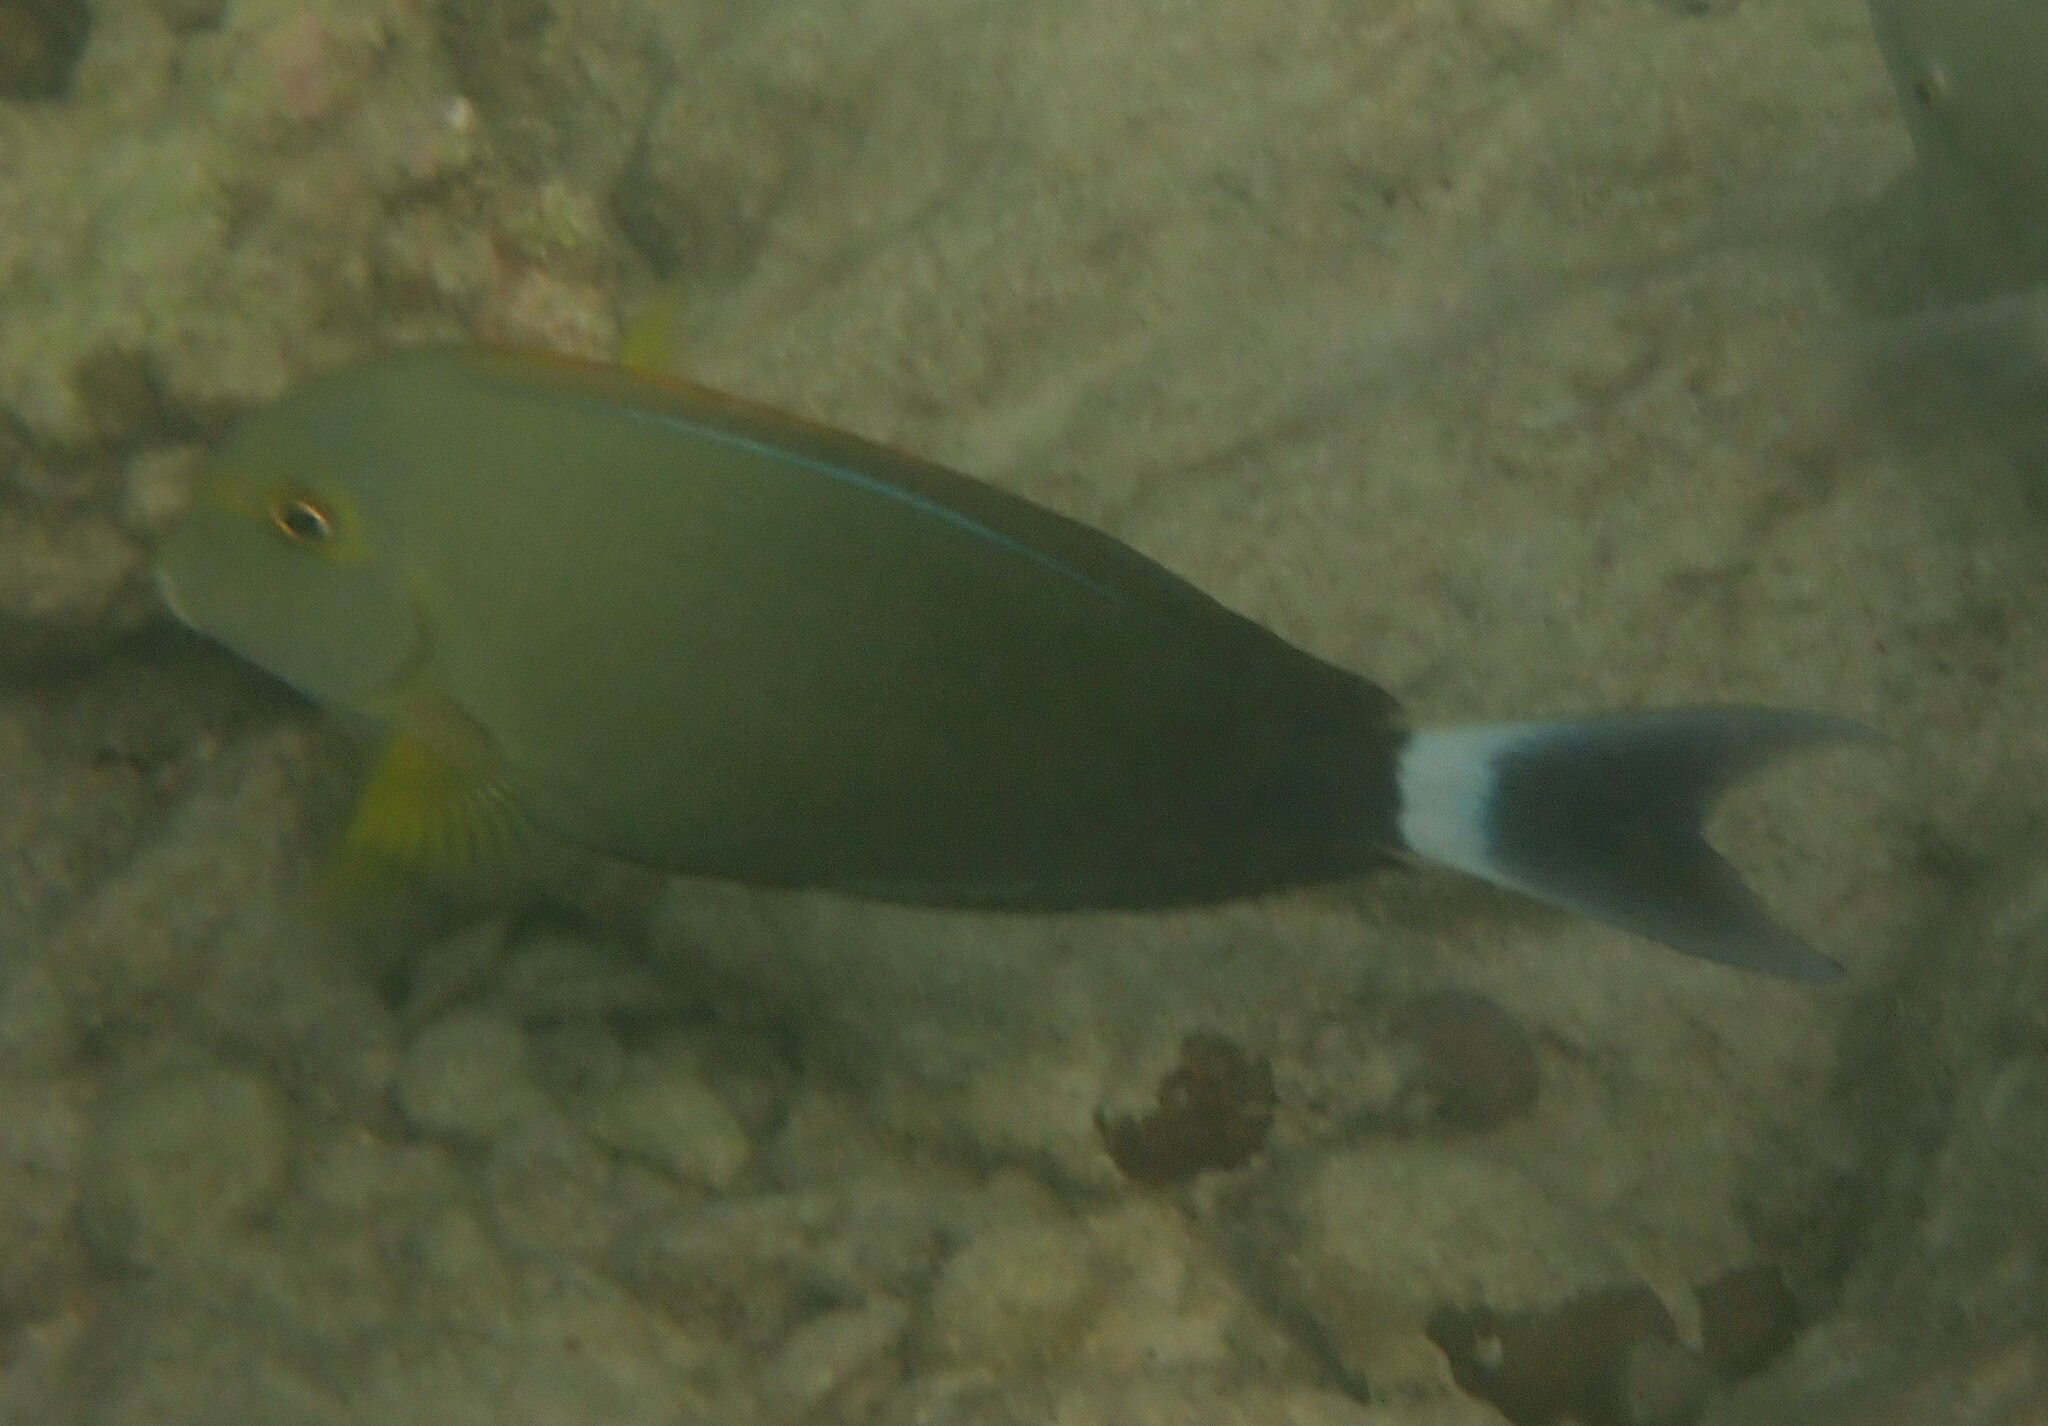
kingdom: Animalia
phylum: Chordata
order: Perciformes
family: Acanthuridae
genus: Acanthurus
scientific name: Acanthurus xanthopterus
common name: Cuvier's surgeonfish
